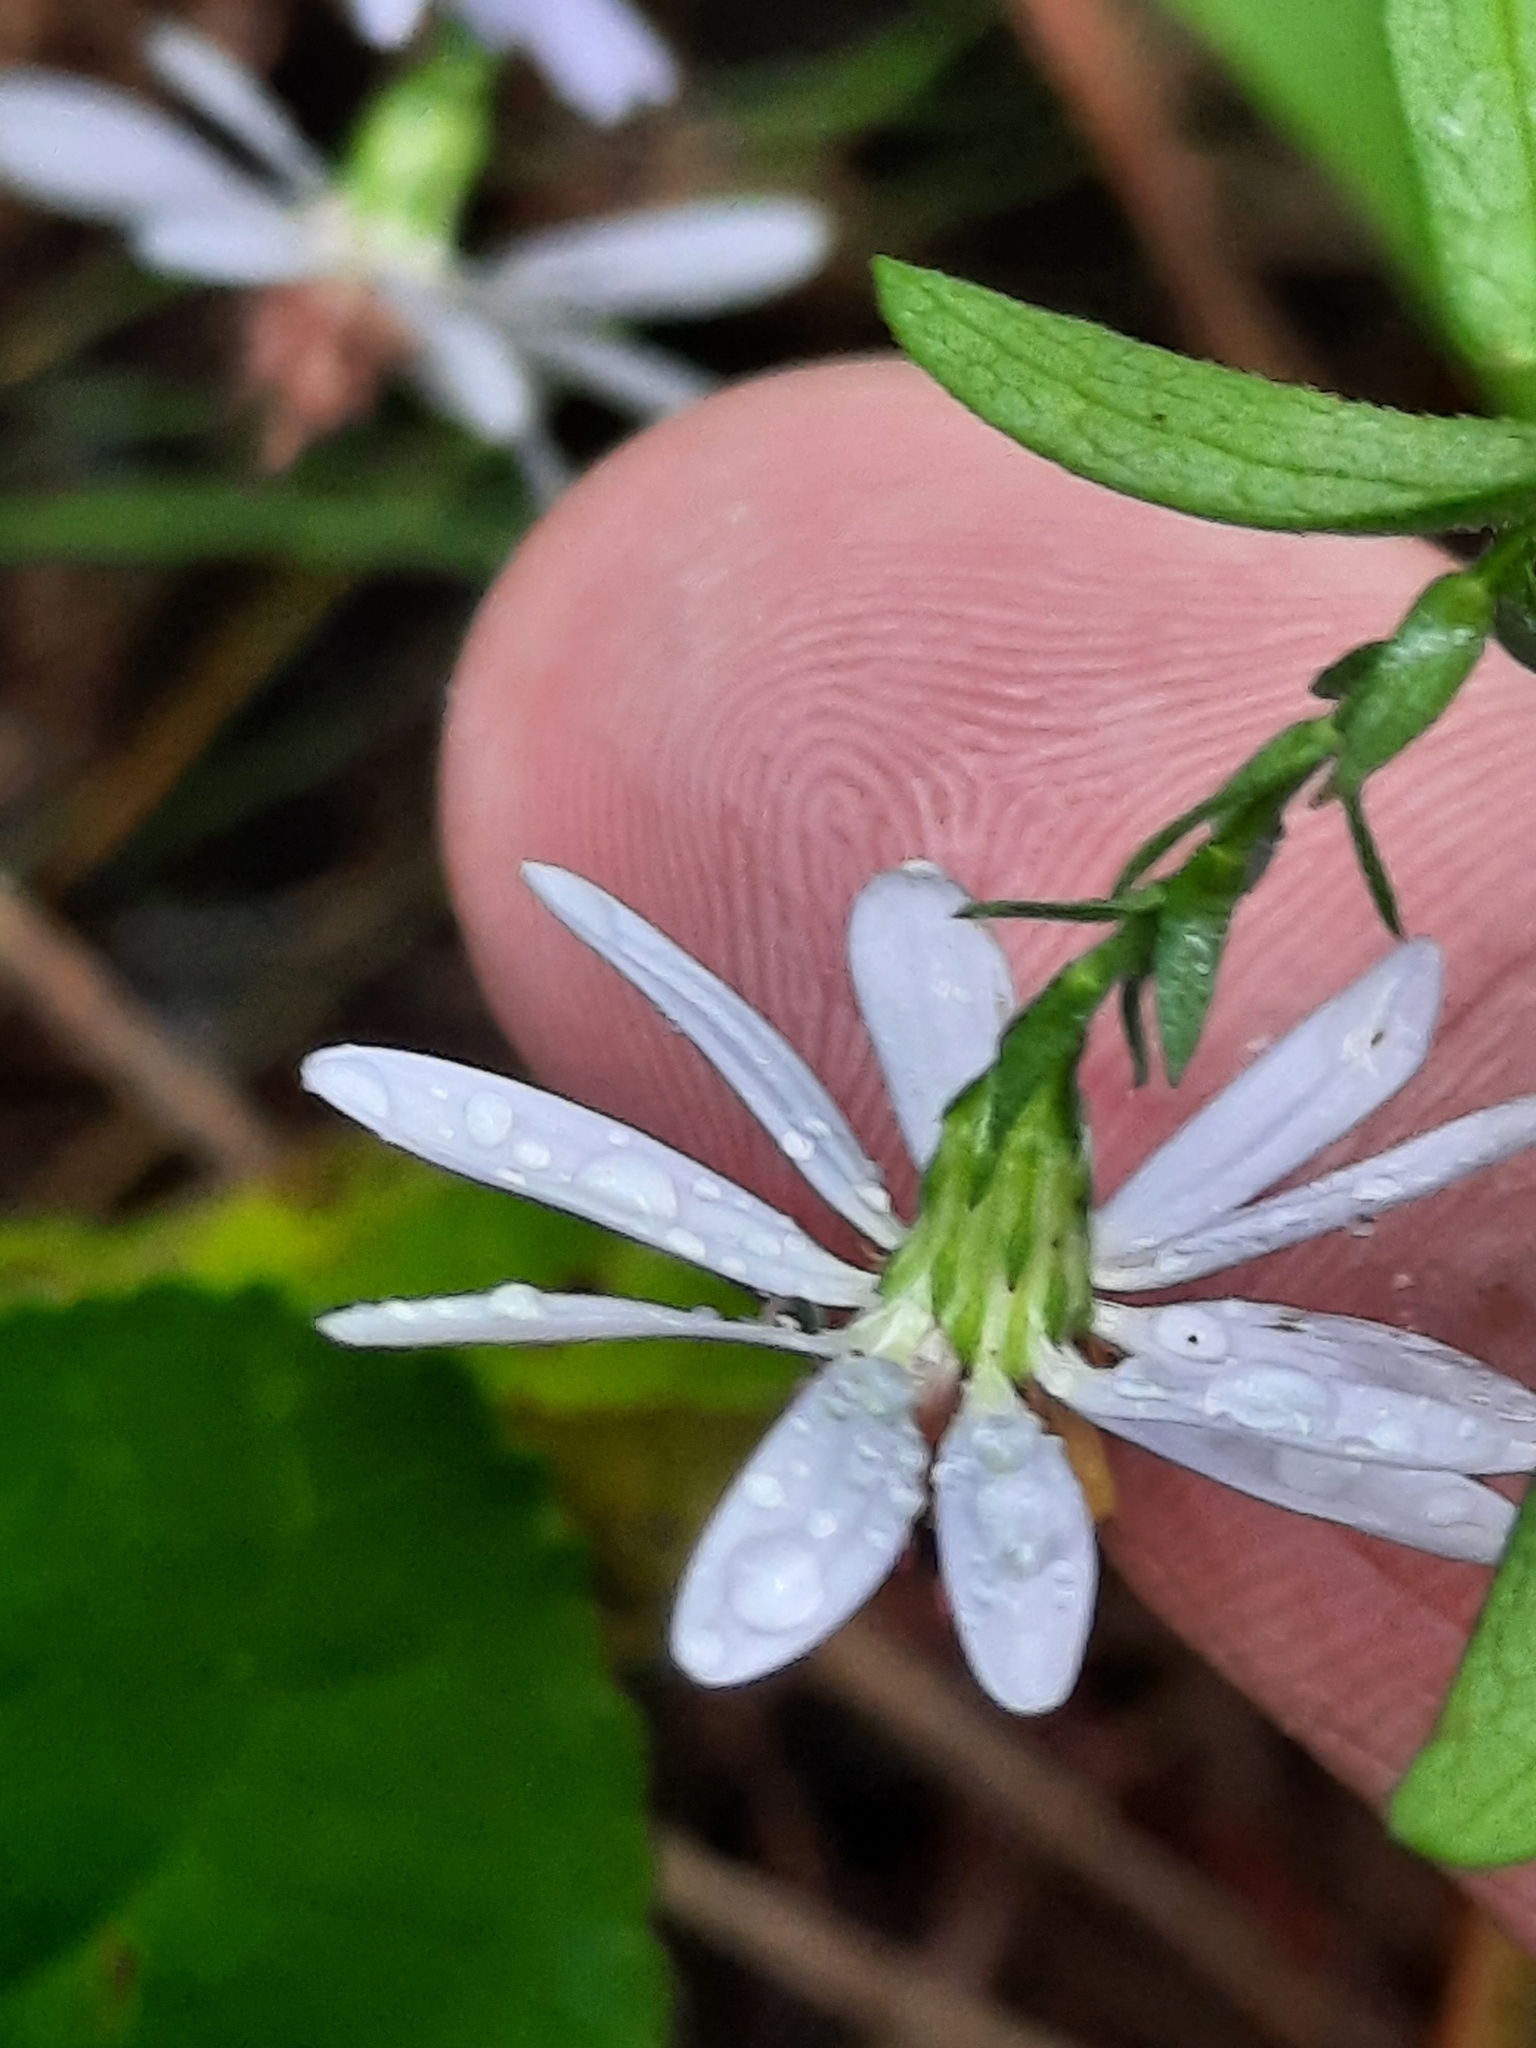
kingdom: Plantae
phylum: Tracheophyta
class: Magnoliopsida
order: Asterales
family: Asteraceae
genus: Symphyotrichum
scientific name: Symphyotrichum undulatum
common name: Clasping heart-leaf aster
